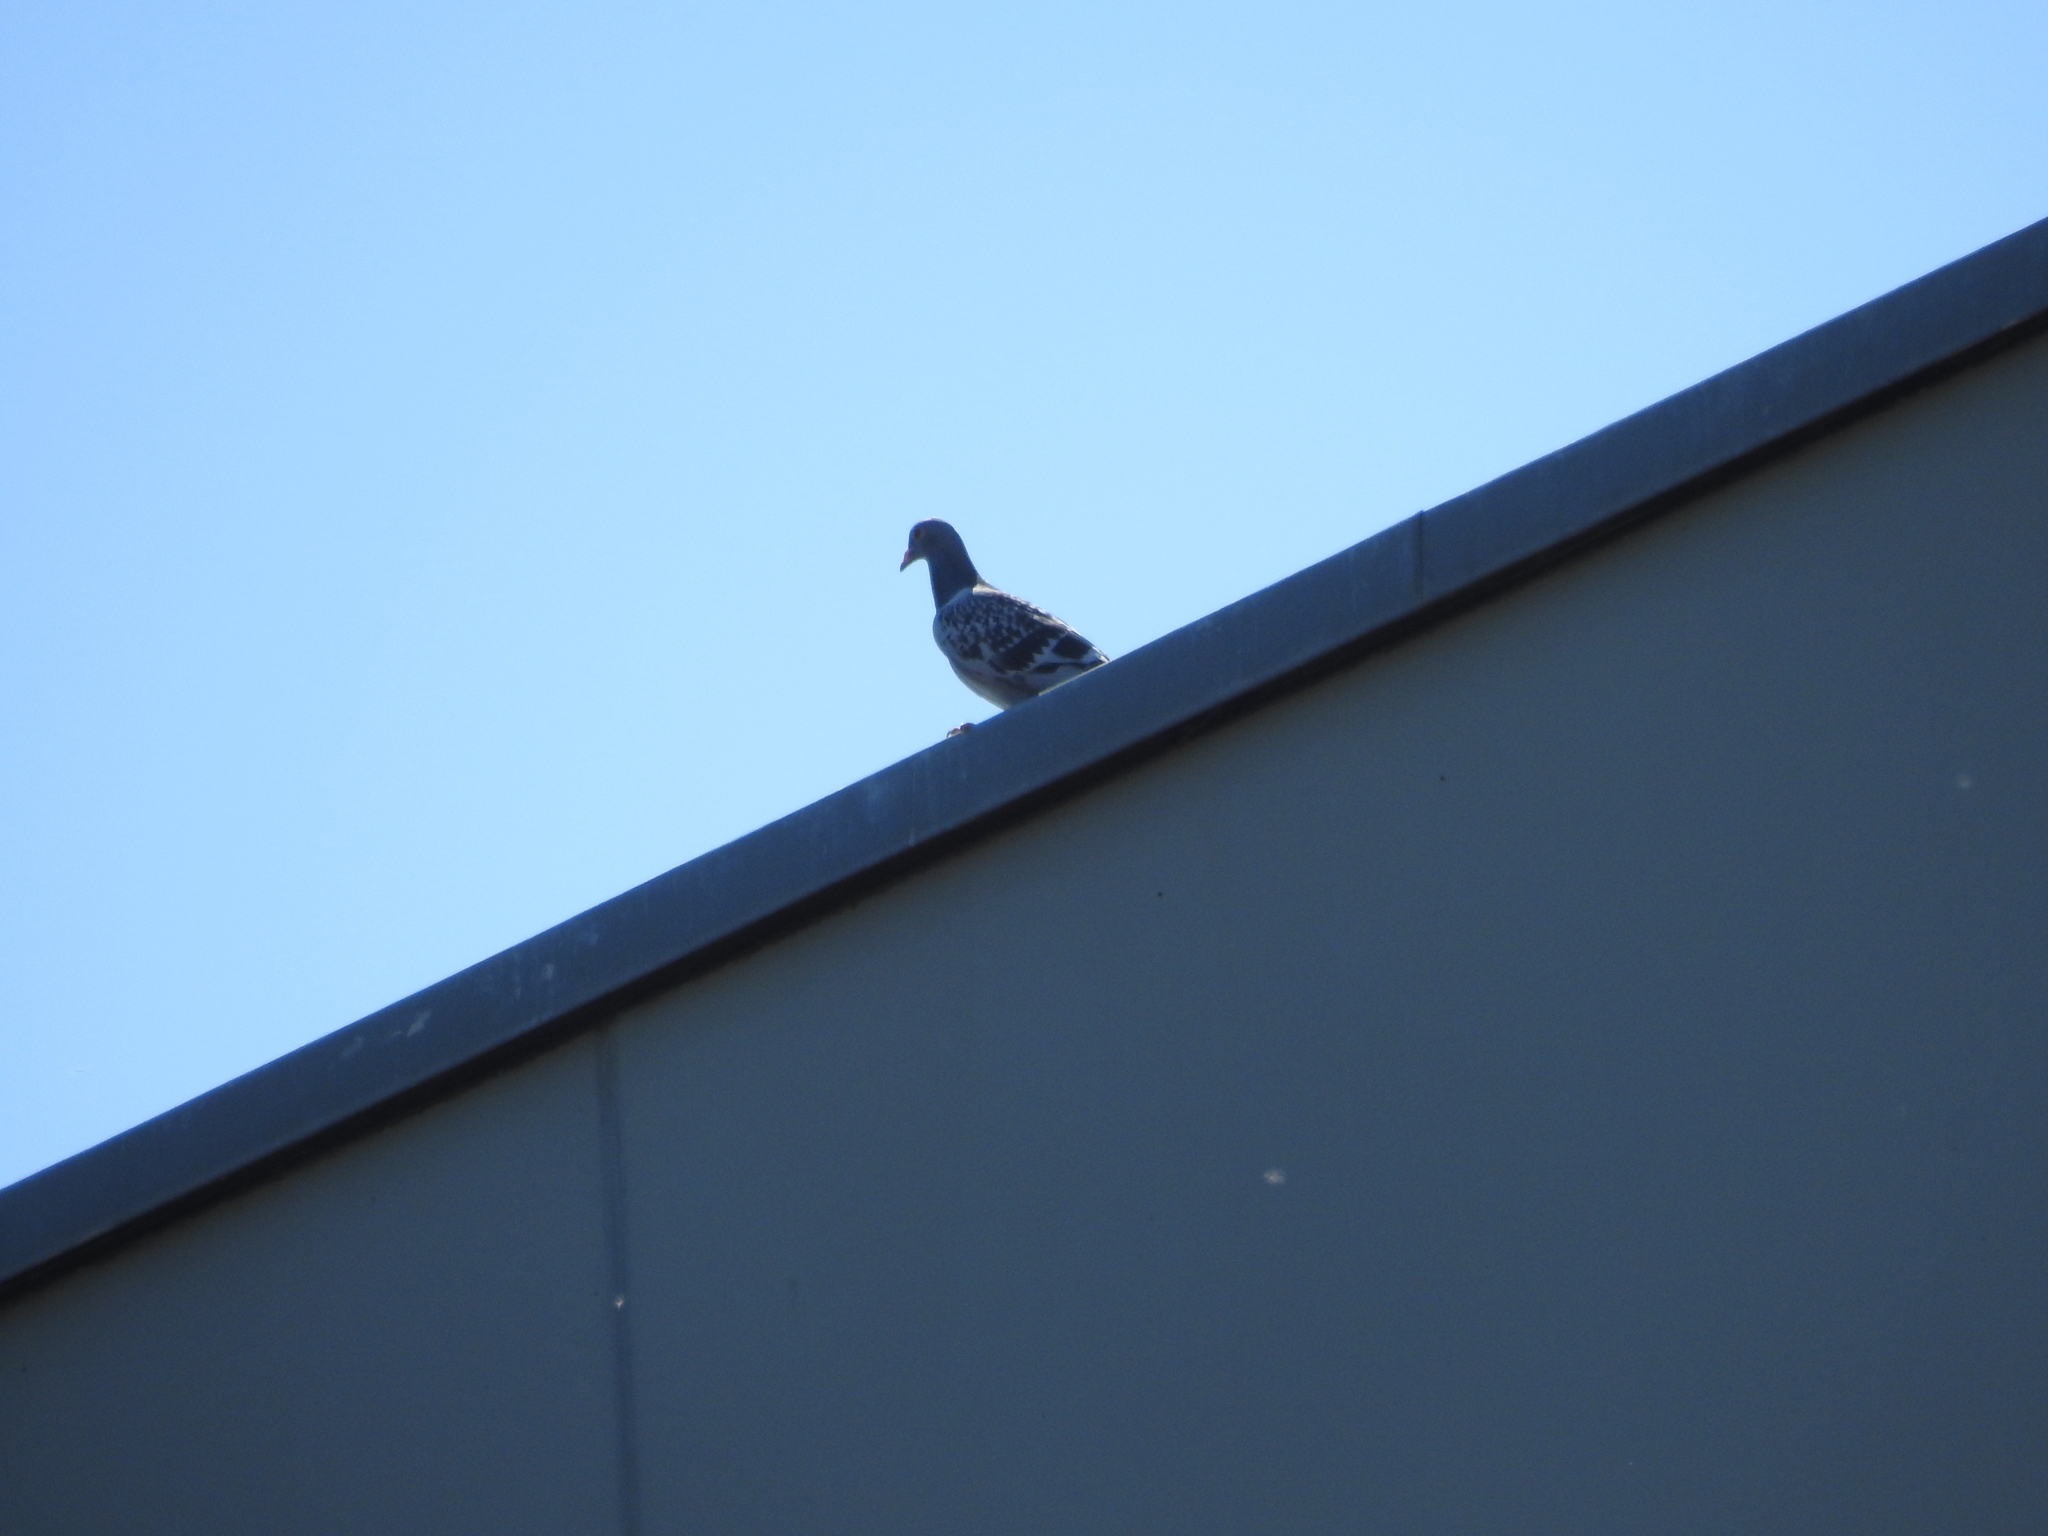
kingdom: Animalia
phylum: Chordata
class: Aves
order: Columbiformes
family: Columbidae
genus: Columba
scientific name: Columba livia
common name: Rock pigeon
